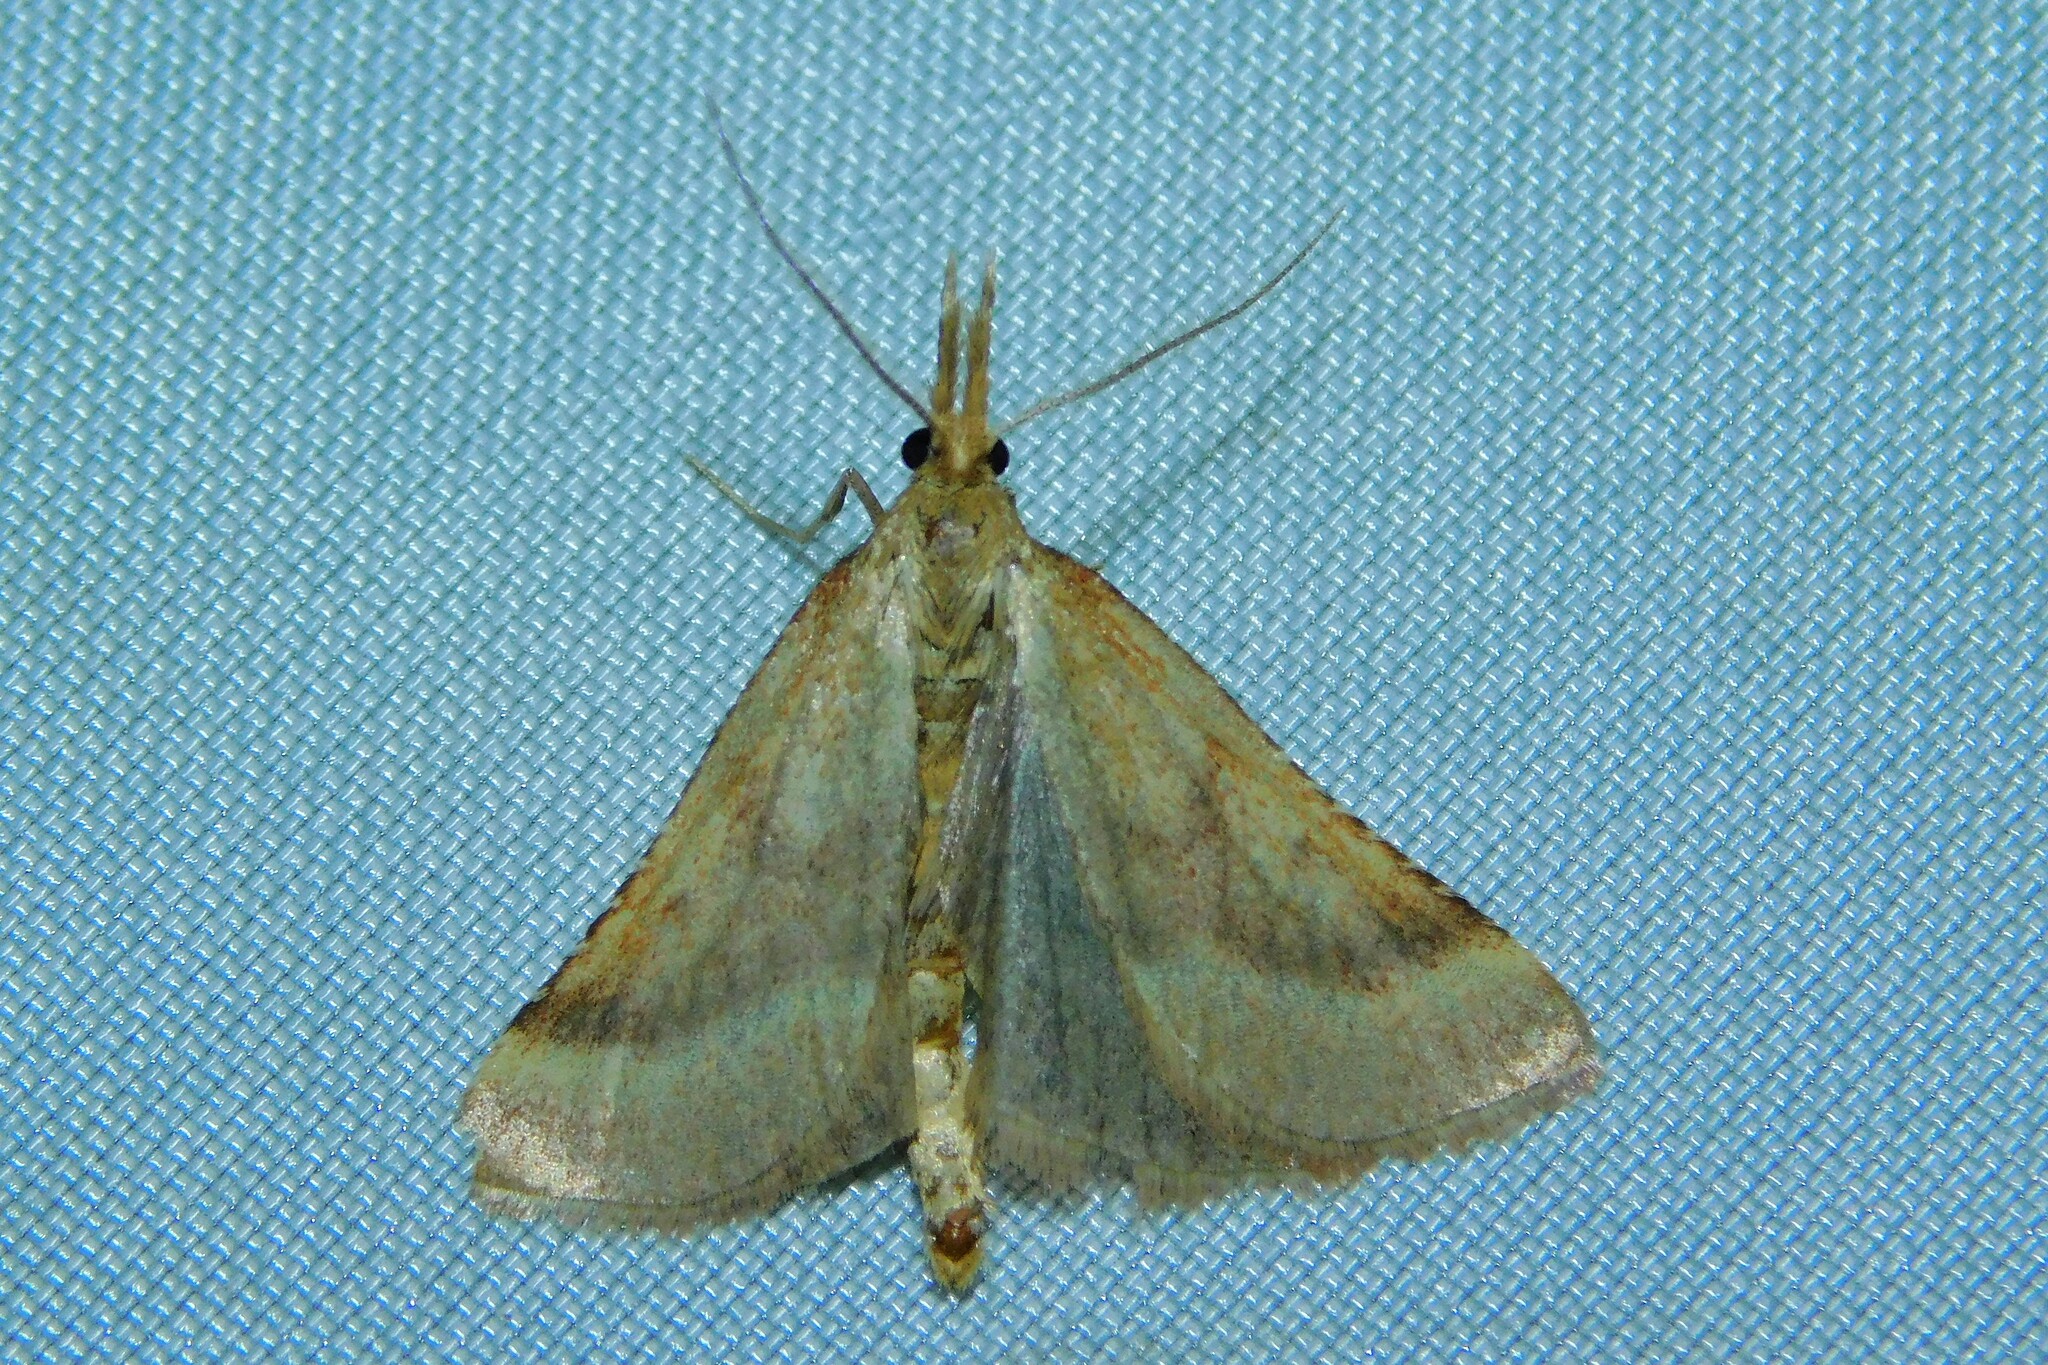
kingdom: Animalia
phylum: Arthropoda
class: Insecta
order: Lepidoptera
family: Pyralidae
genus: Synaphe
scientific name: Synaphe punctalis
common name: Long-legged tabby
